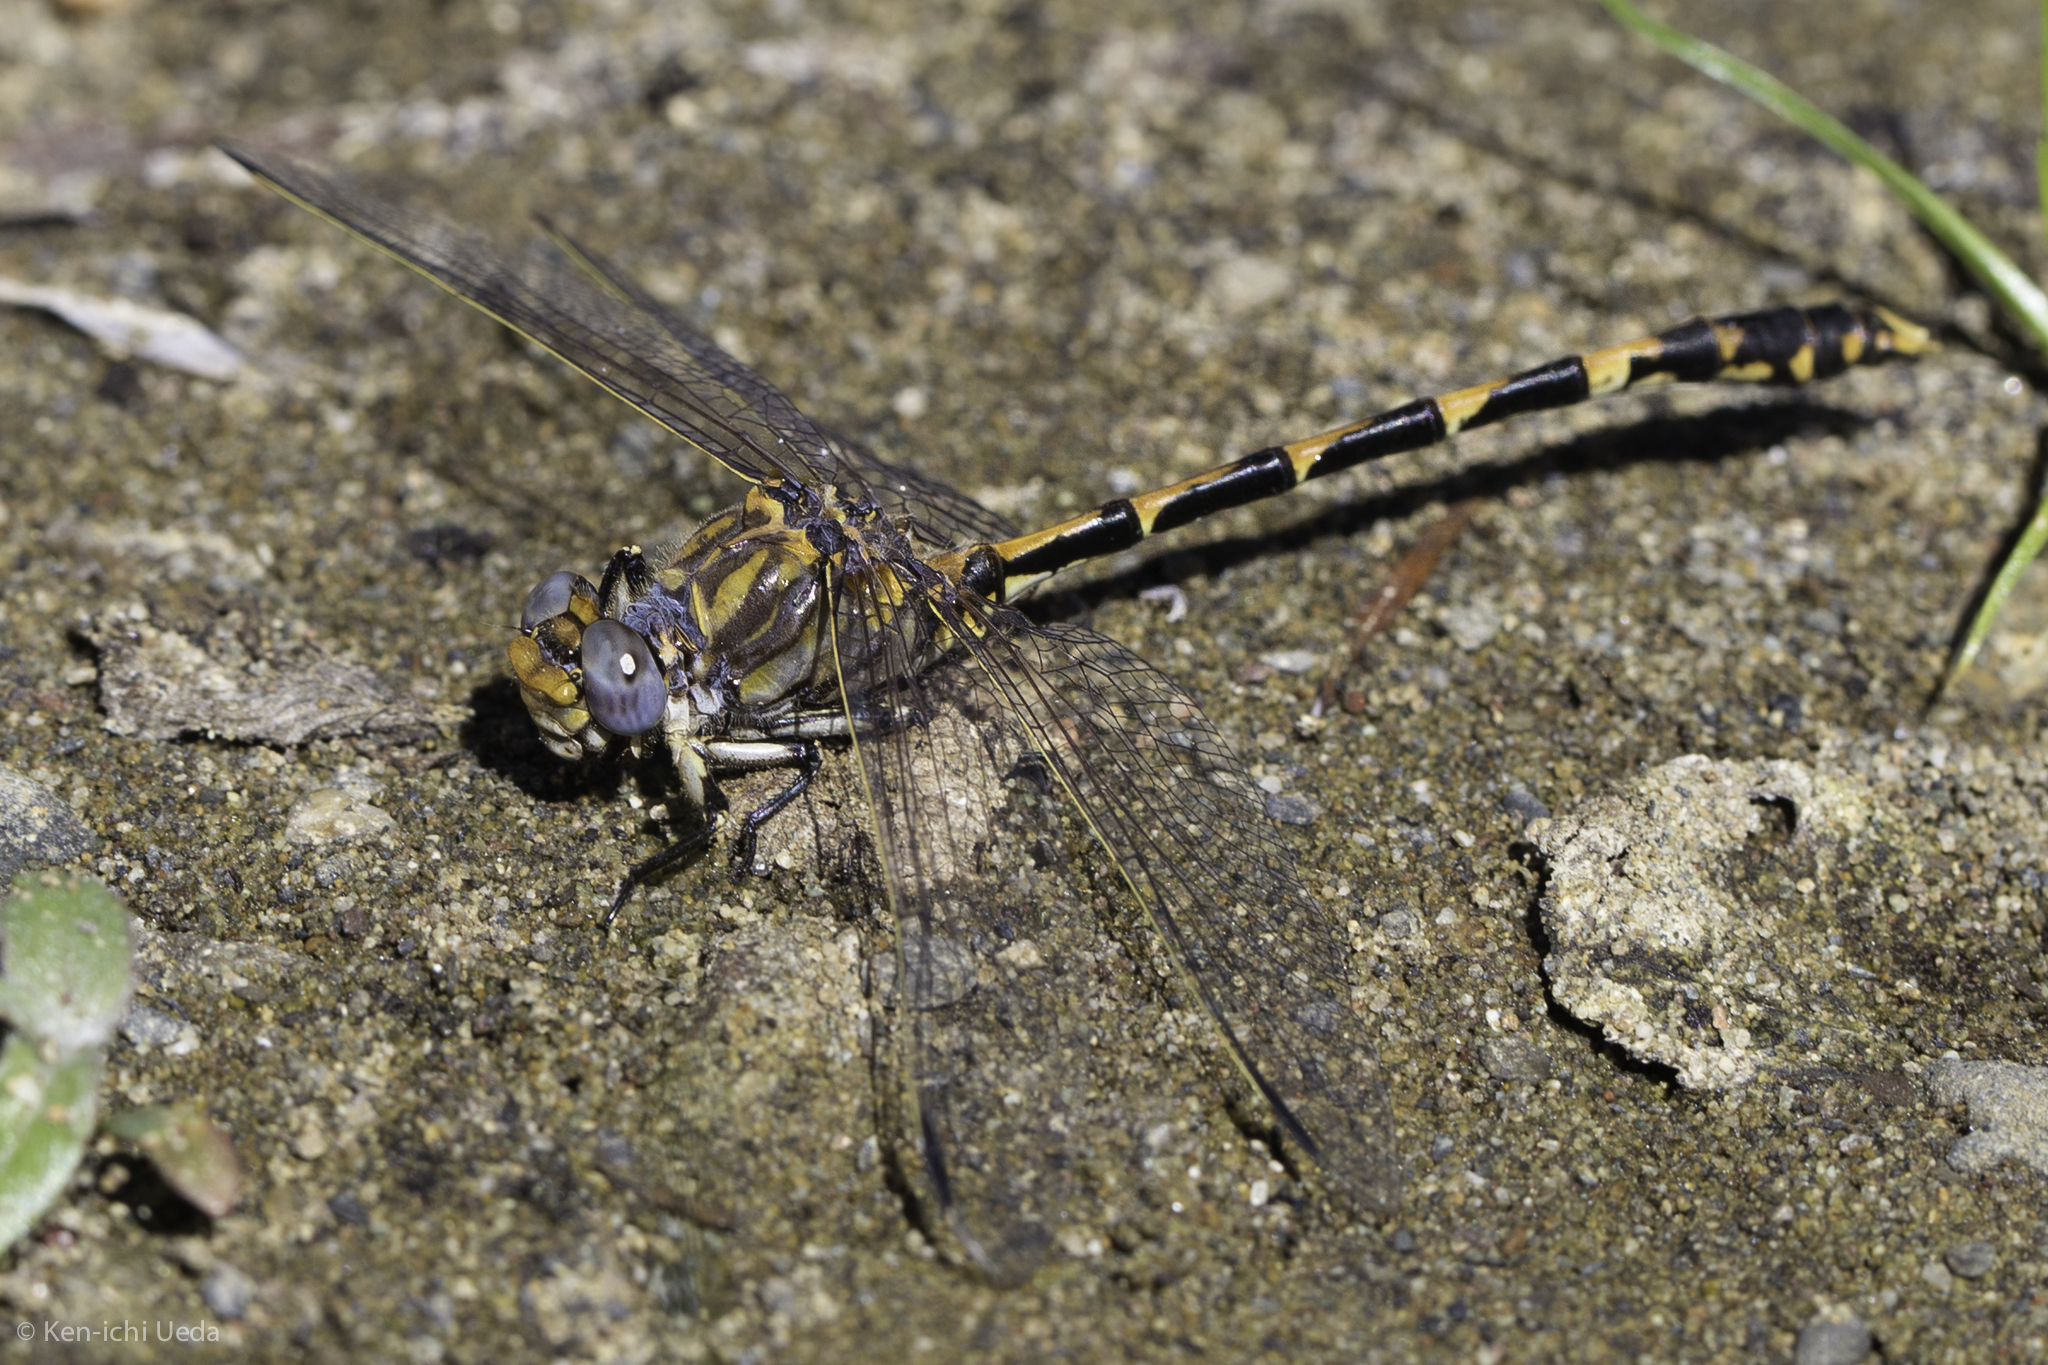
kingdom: Animalia
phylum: Arthropoda
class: Insecta
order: Odonata
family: Gomphidae
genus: Progomphus
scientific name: Progomphus borealis
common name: Gray sanddragon
